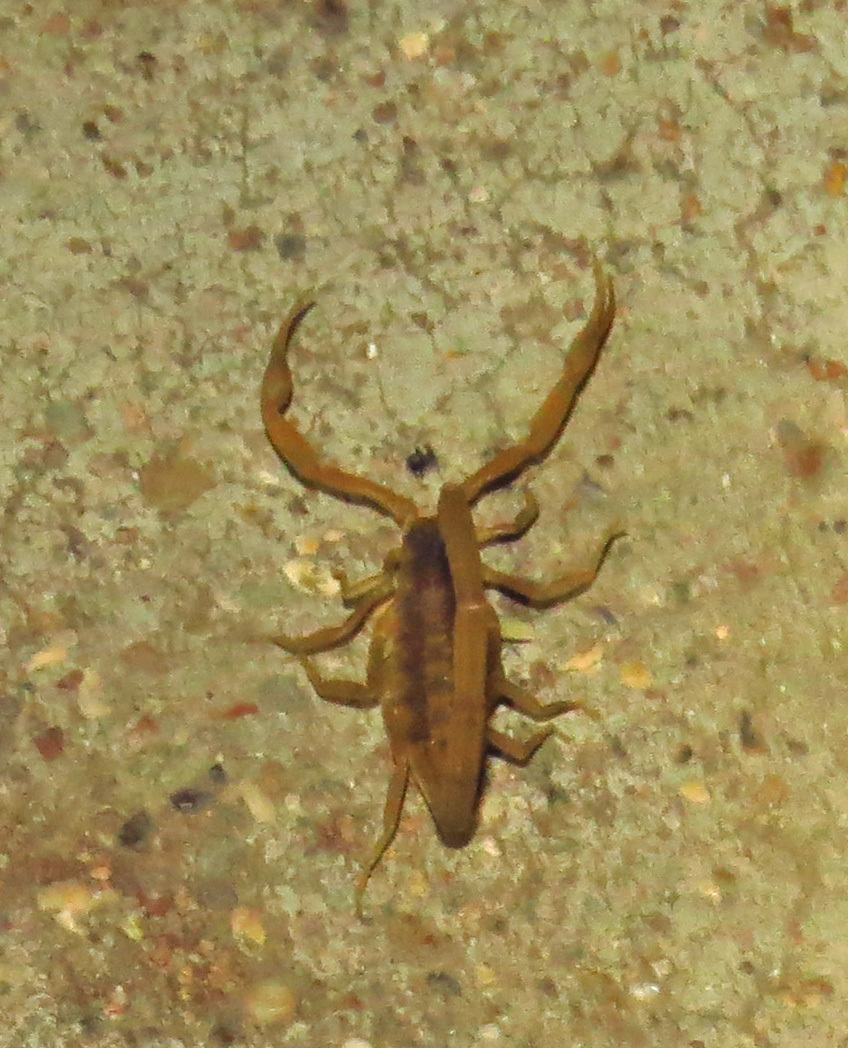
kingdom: Animalia
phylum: Arthropoda
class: Arachnida
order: Scorpiones
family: Buthidae
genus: Centruroides
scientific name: Centruroides vittatus
